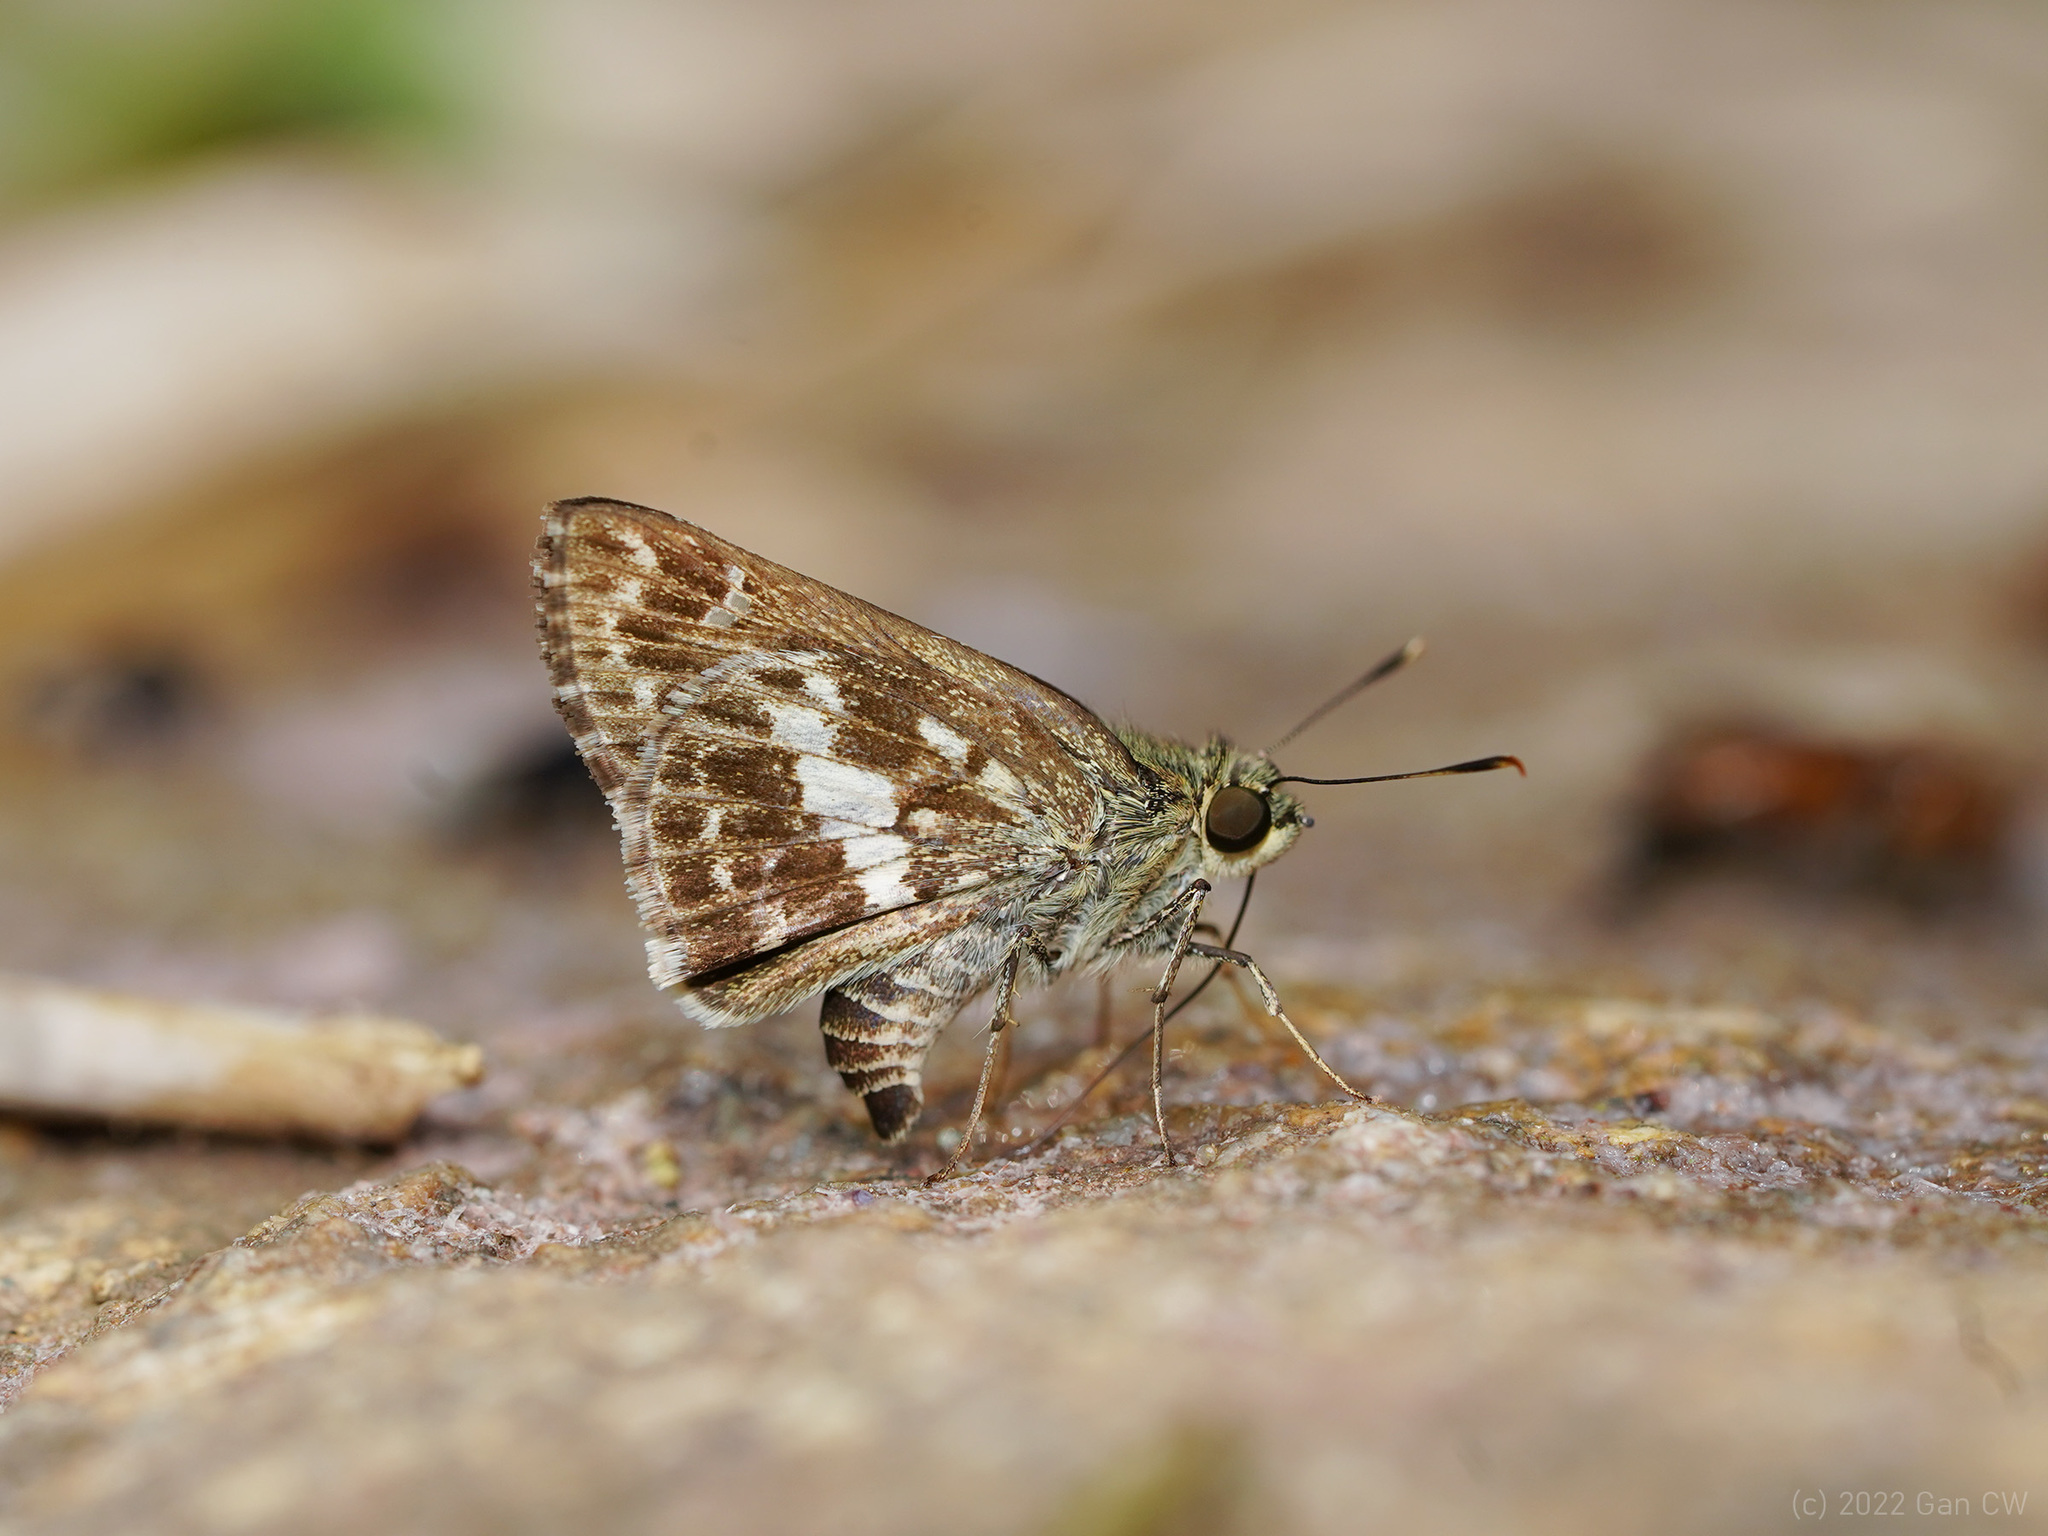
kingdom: Animalia
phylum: Arthropoda
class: Insecta
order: Lepidoptera
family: Hesperiidae
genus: Halpe
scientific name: Halpe porus
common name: Moore's ace
